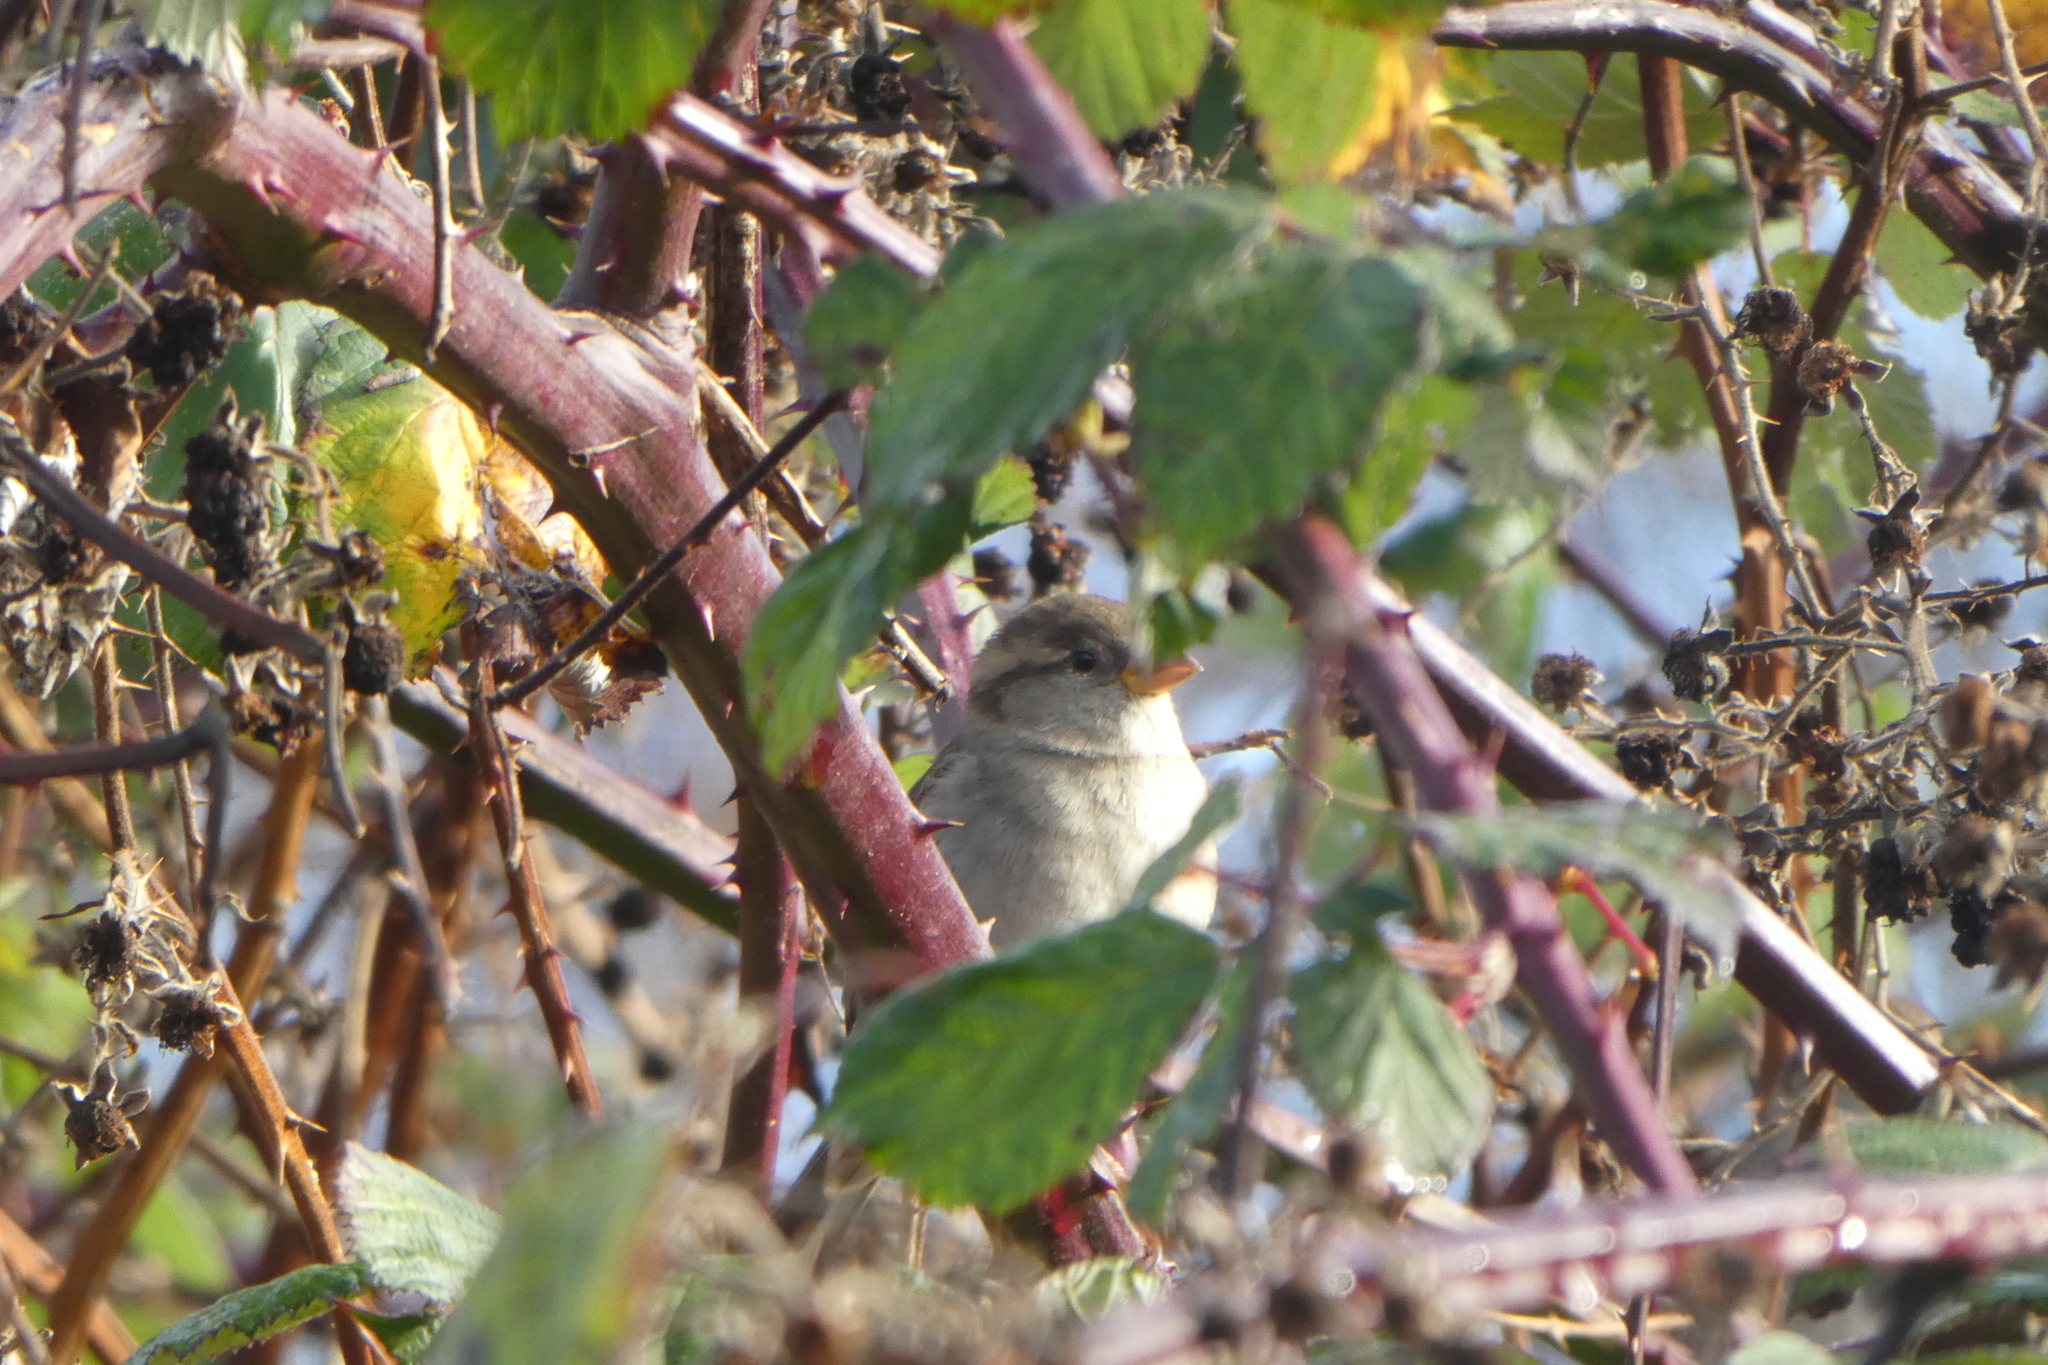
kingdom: Animalia
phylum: Chordata
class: Aves
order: Passeriformes
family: Passeridae
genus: Passer
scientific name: Passer domesticus
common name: House sparrow
